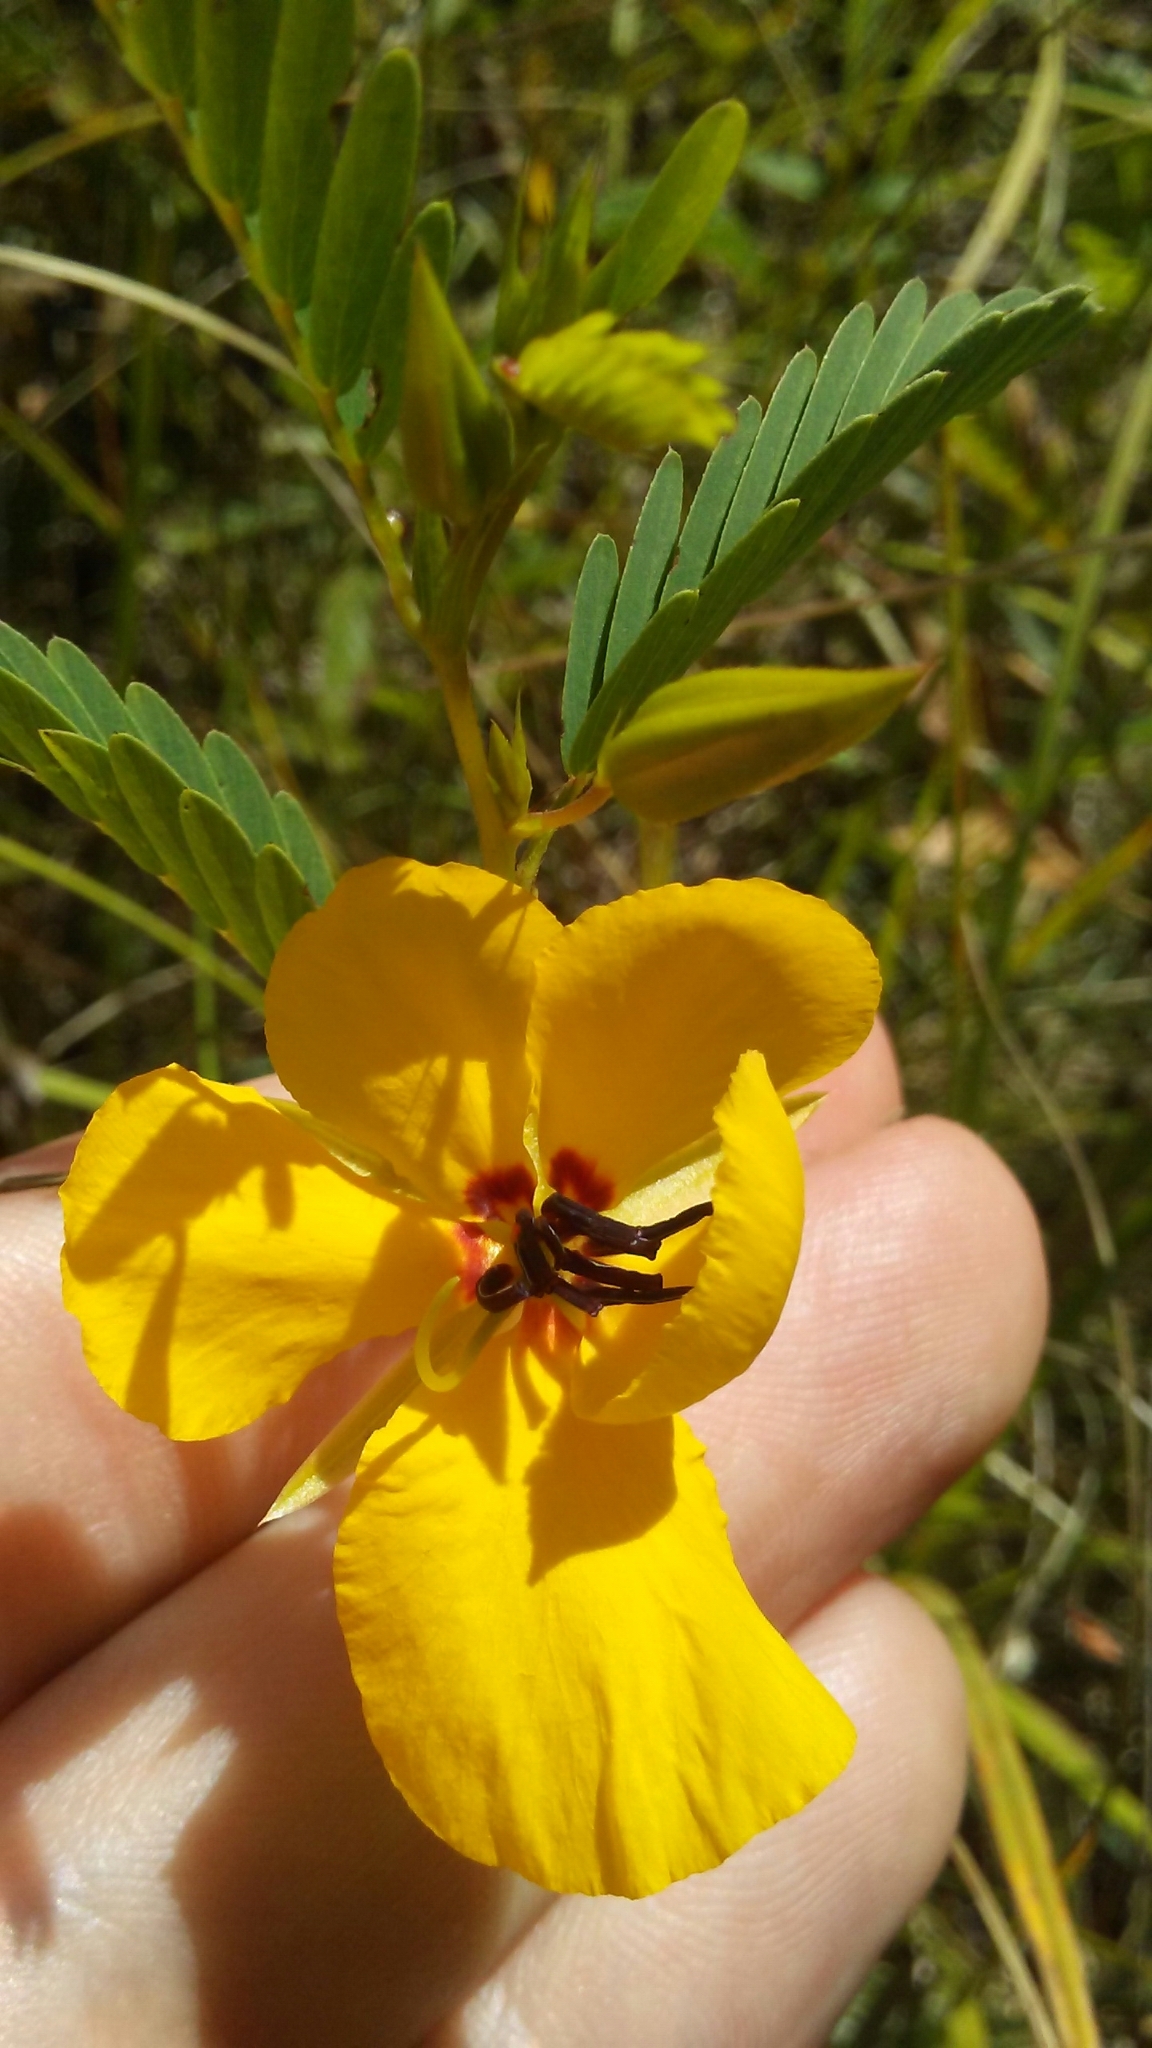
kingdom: Plantae
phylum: Tracheophyta
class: Magnoliopsida
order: Fabales
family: Fabaceae
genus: Chamaecrista
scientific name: Chamaecrista fasciculata
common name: Golden cassia
